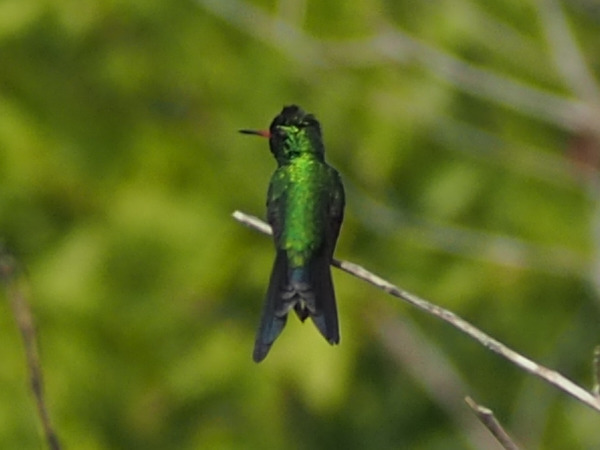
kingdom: Animalia
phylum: Chordata
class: Aves
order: Apodiformes
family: Trochilidae
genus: Cynanthus
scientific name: Cynanthus canivetii
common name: Canivet's emerald
